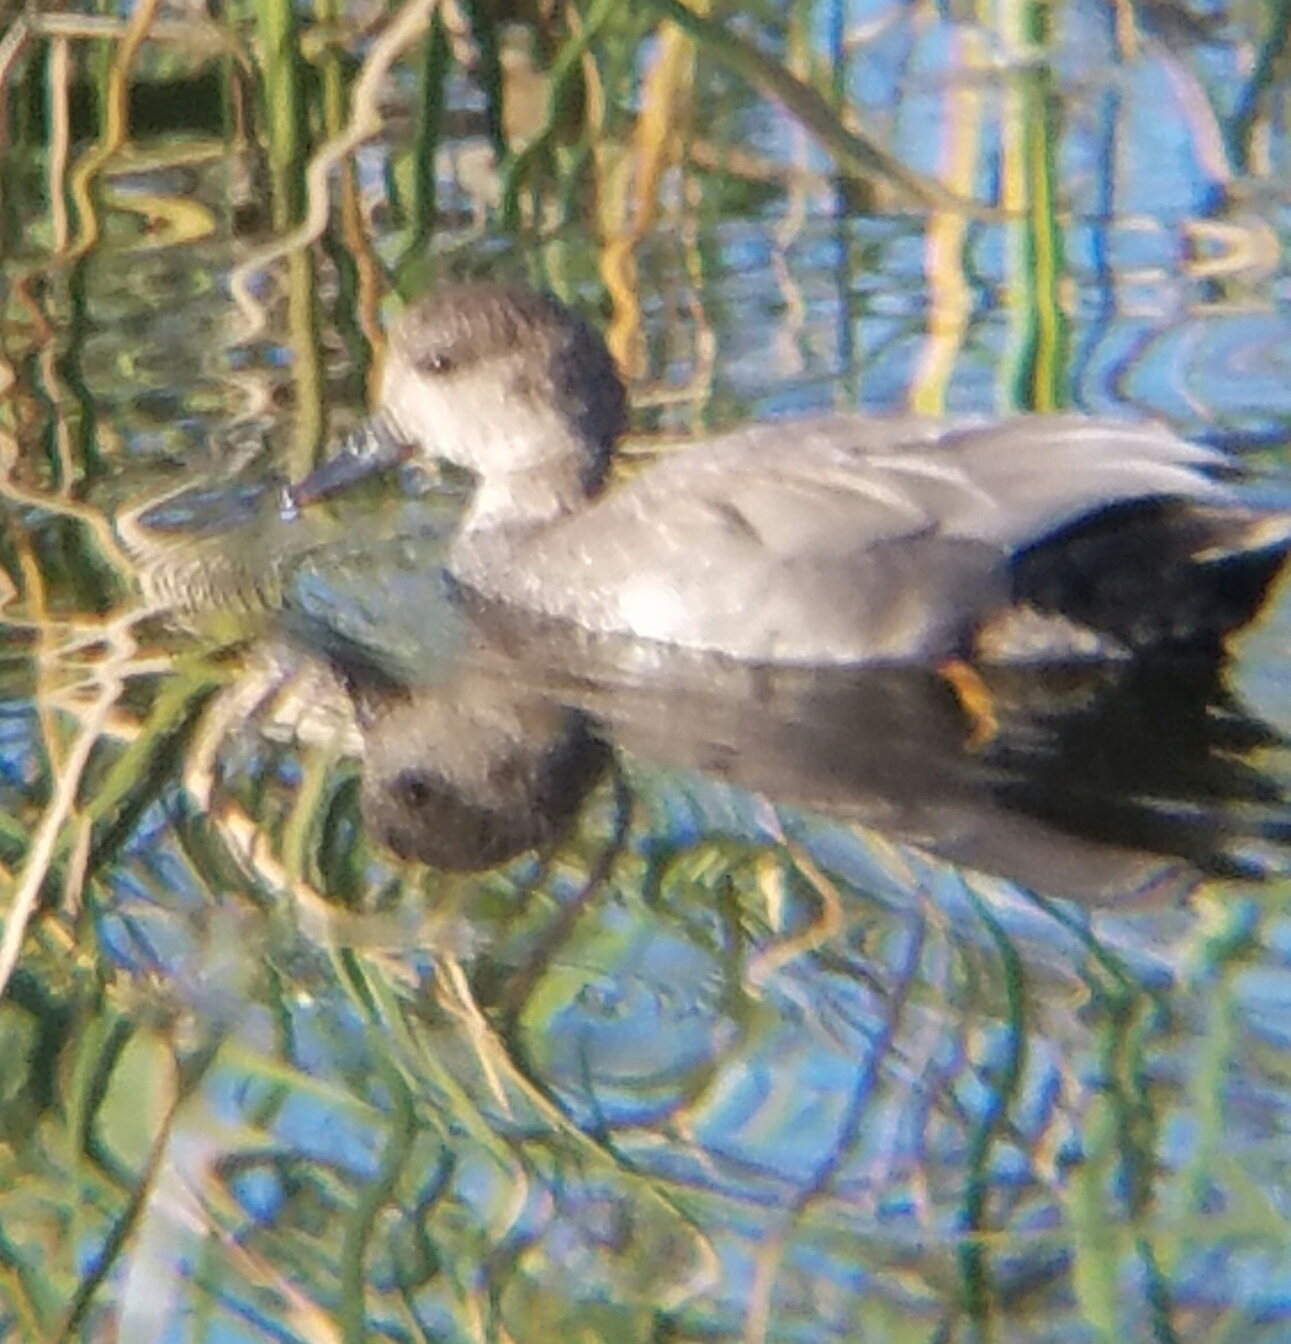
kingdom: Animalia
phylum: Chordata
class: Aves
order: Anseriformes
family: Anatidae
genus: Mareca
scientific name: Mareca strepera
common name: Gadwall
